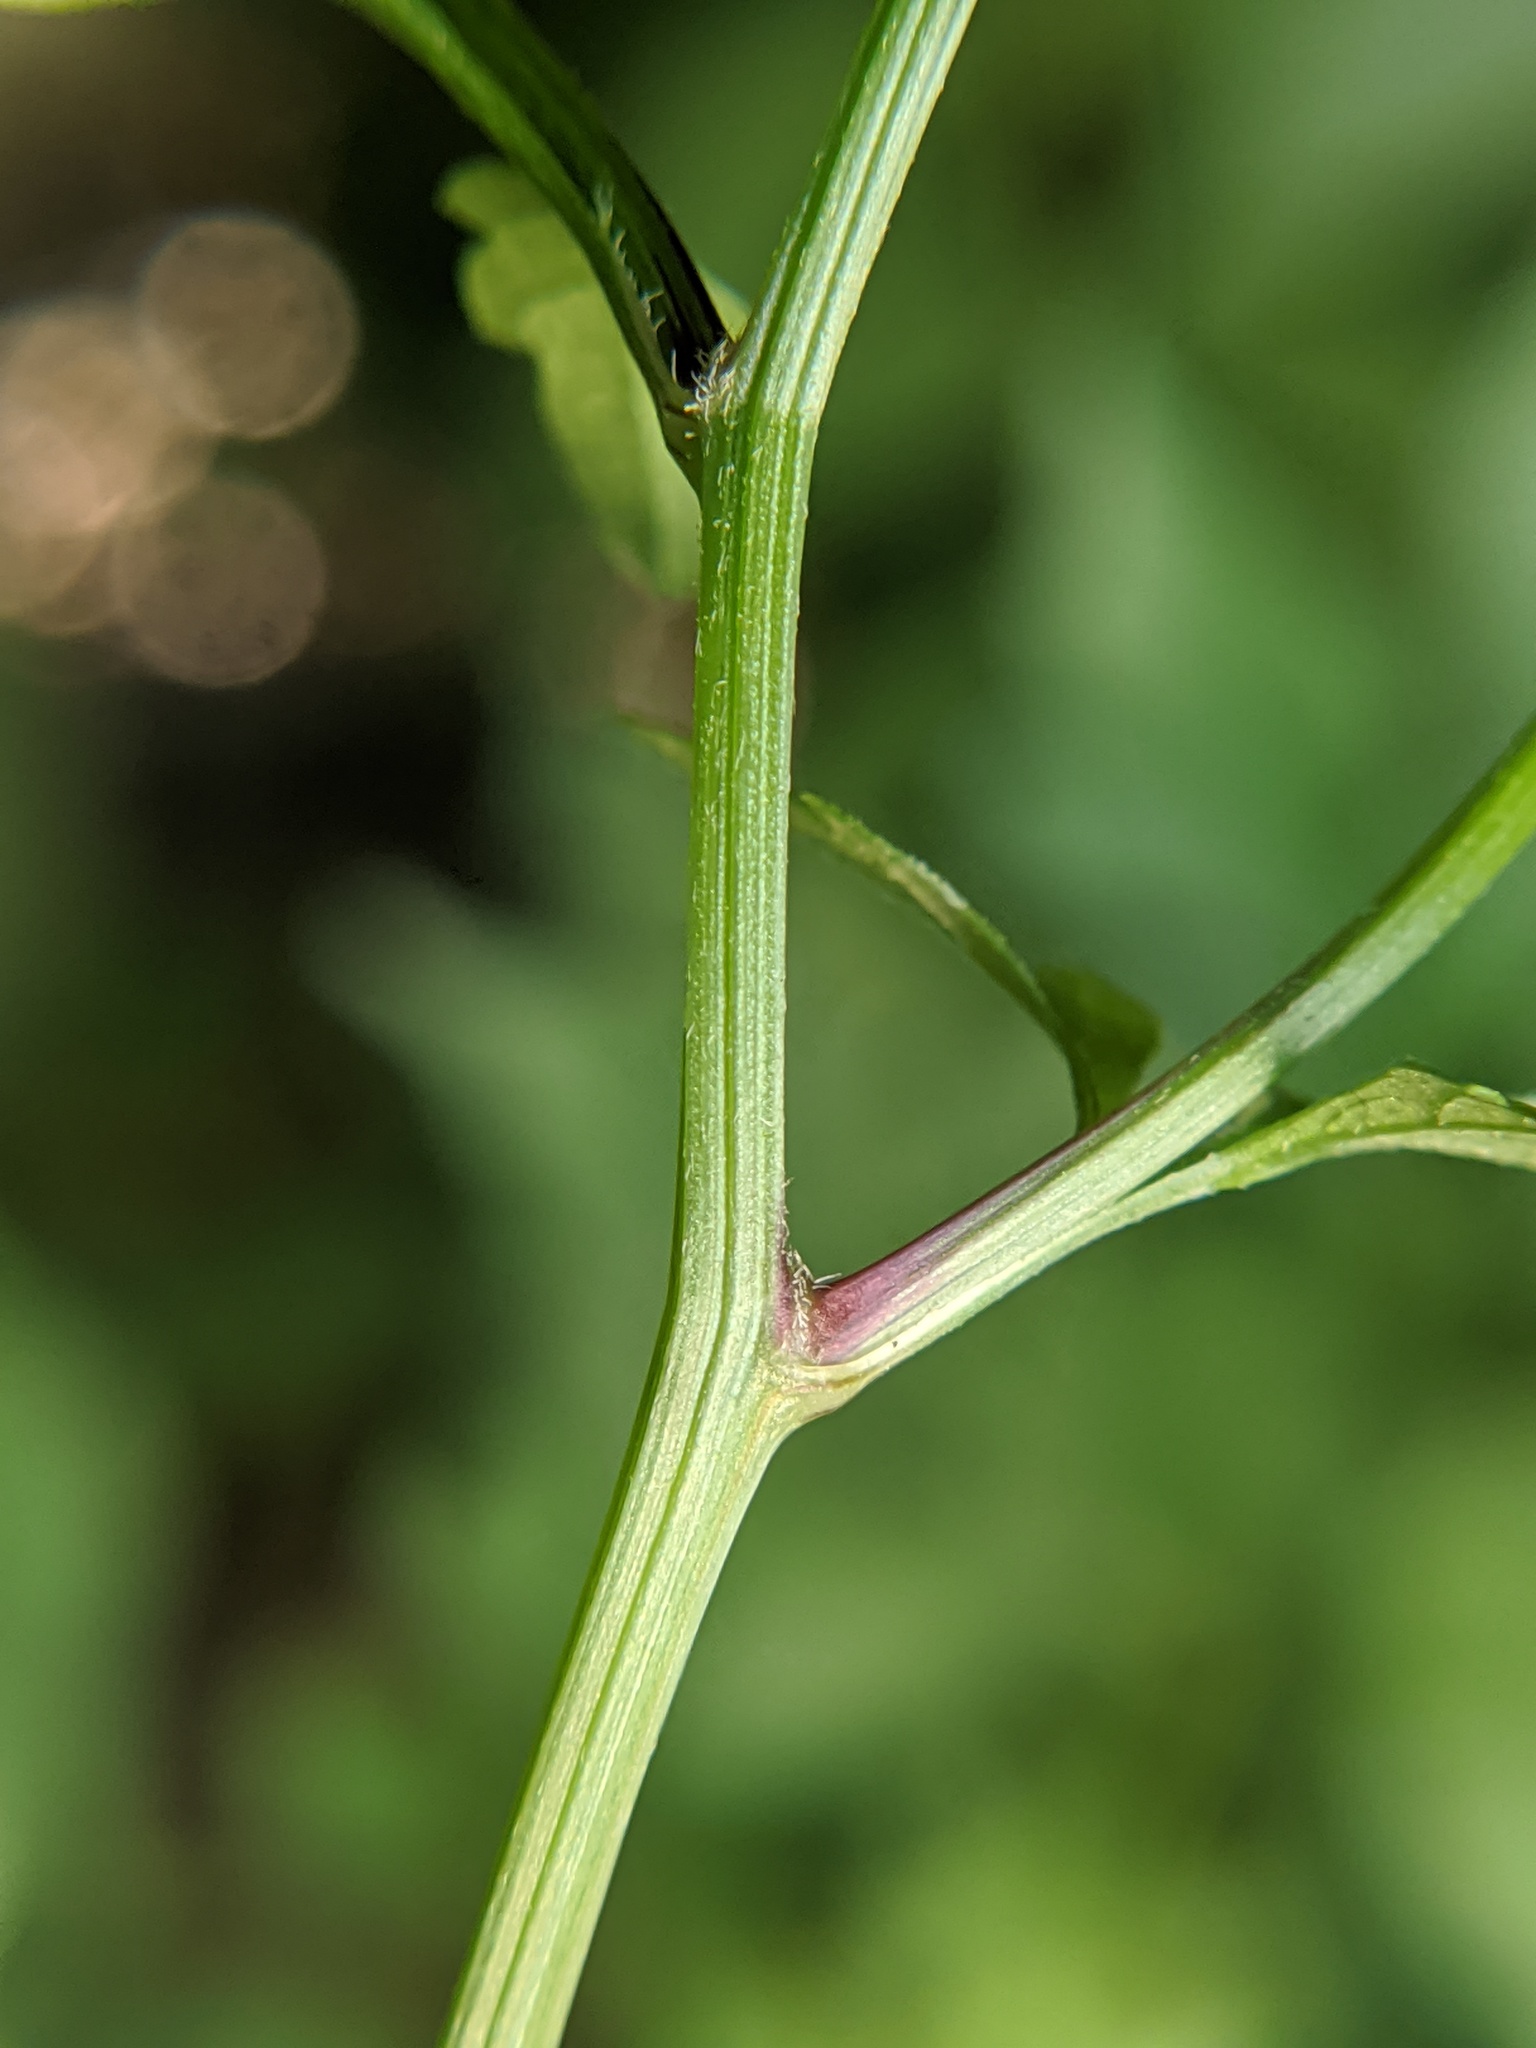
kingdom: Plantae
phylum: Tracheophyta
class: Magnoliopsida
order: Asterales
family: Asteraceae
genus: Bidens
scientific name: Bidens bipinnata
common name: Spanish-needles
